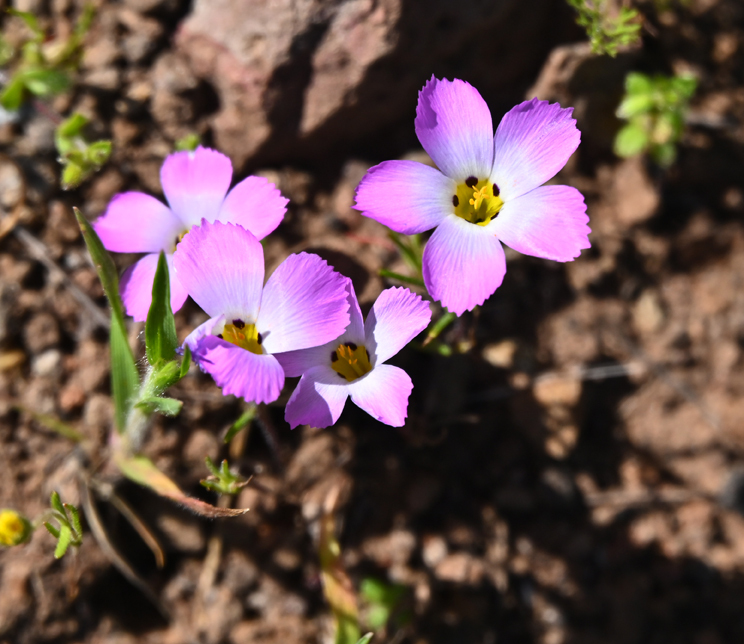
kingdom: Plantae
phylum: Tracheophyta
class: Magnoliopsida
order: Ericales
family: Polemoniaceae
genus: Linanthus
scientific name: Linanthus dianthiflorus
